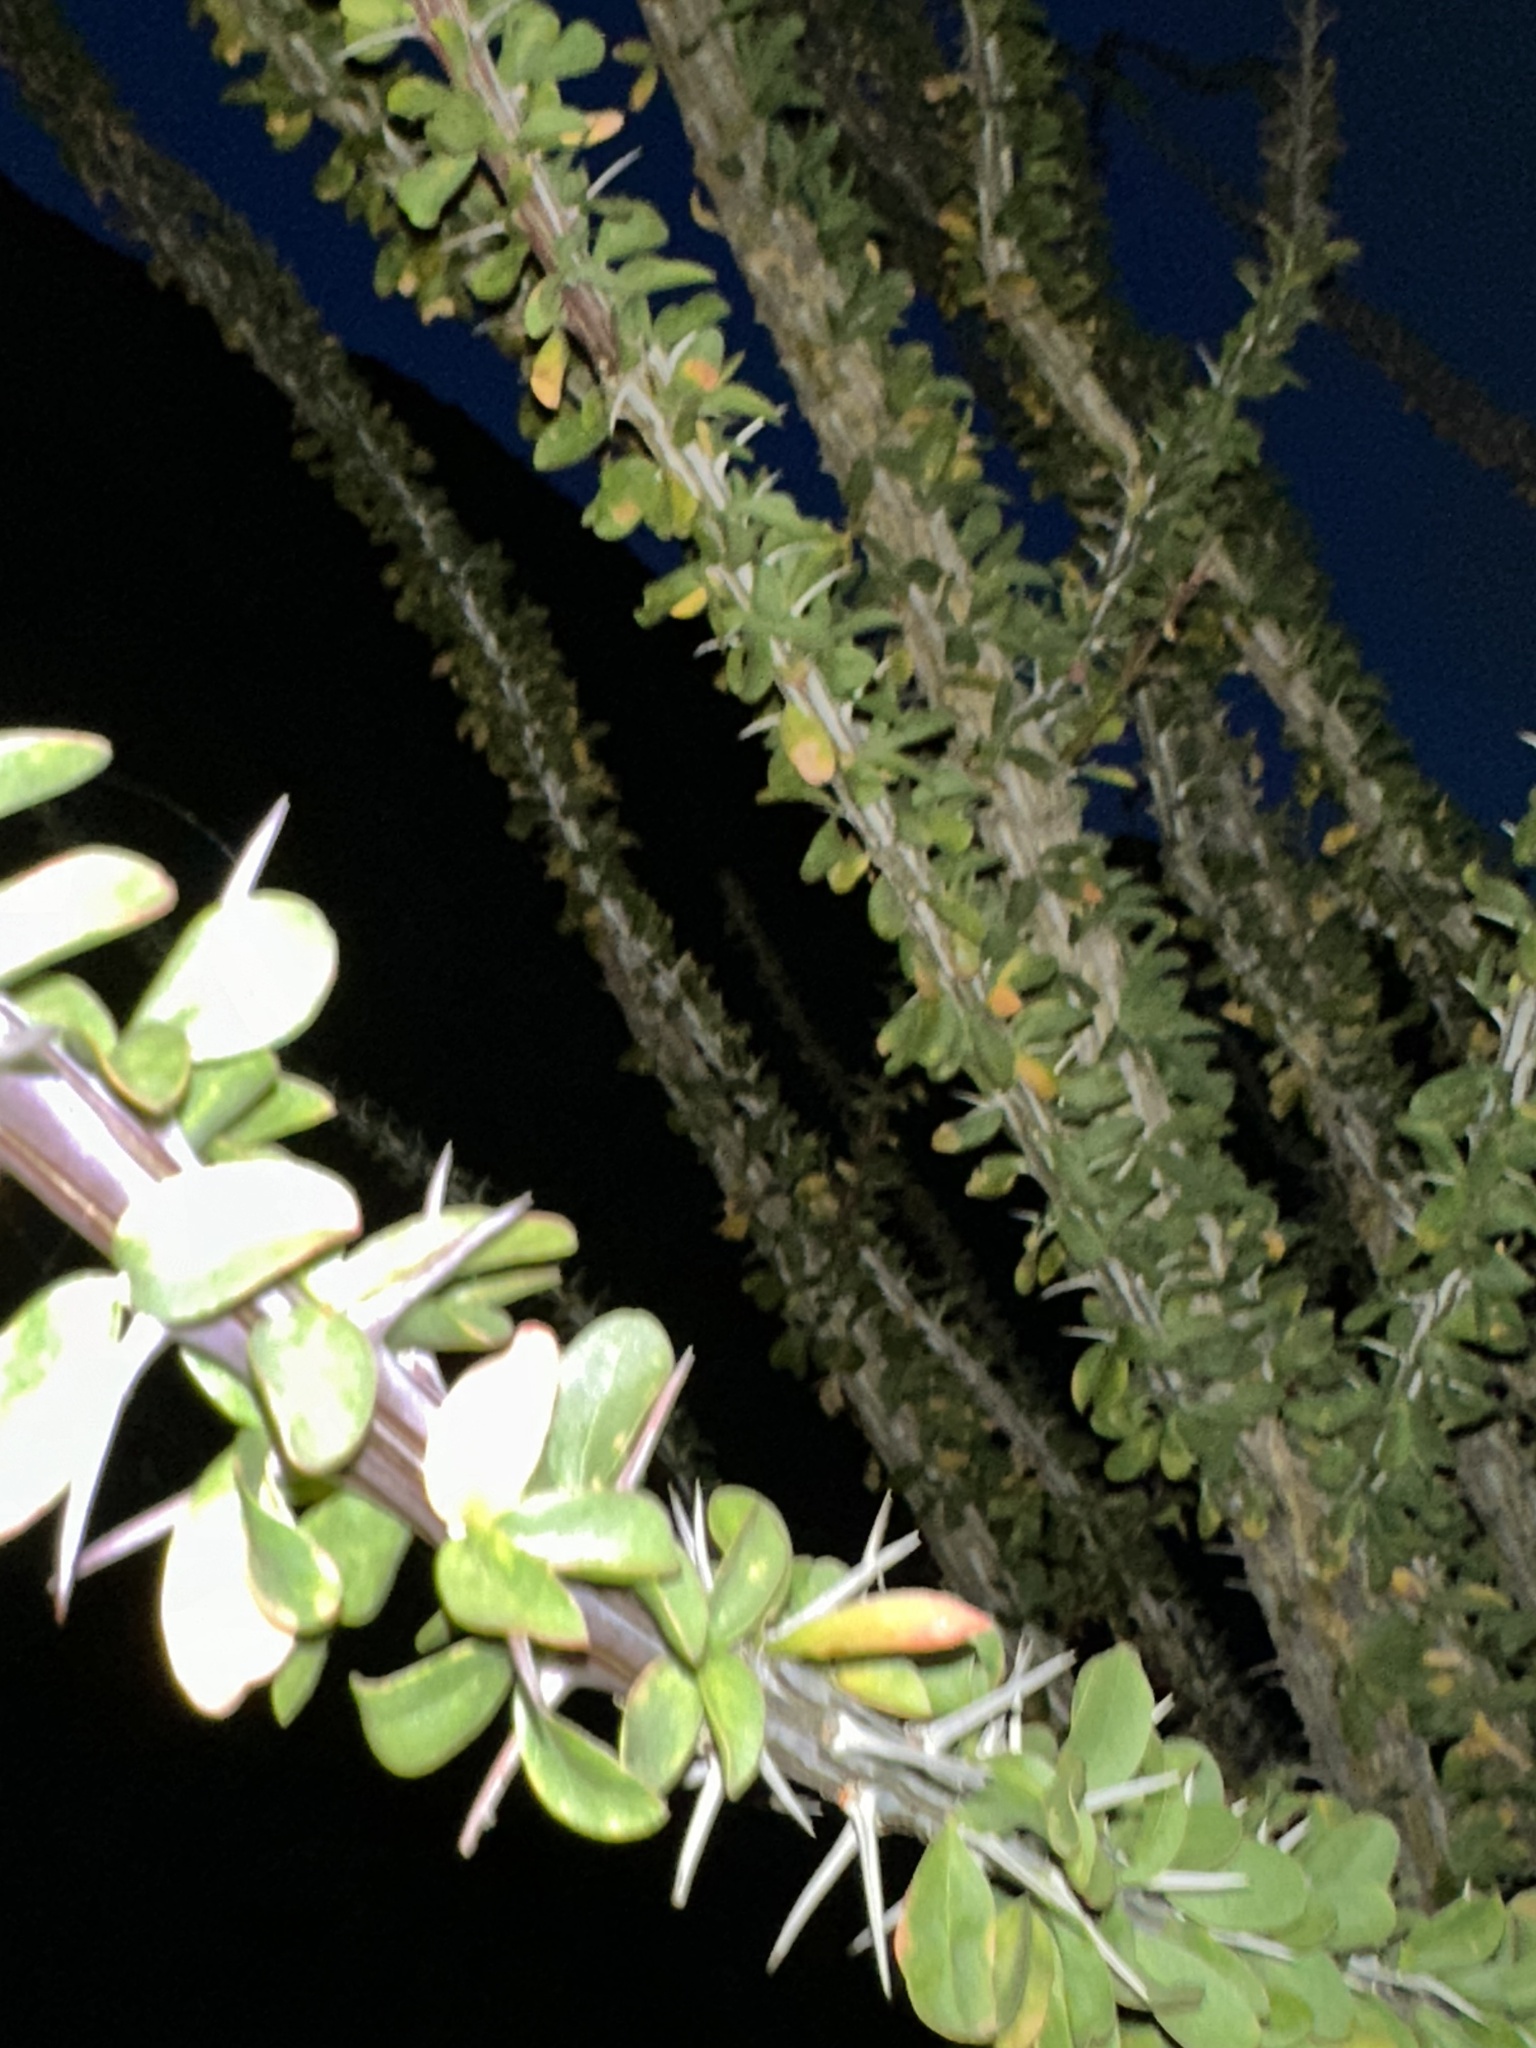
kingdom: Plantae
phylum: Tracheophyta
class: Magnoliopsida
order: Ericales
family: Fouquieriaceae
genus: Fouquieria
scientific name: Fouquieria splendens
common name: Vine-cactus
